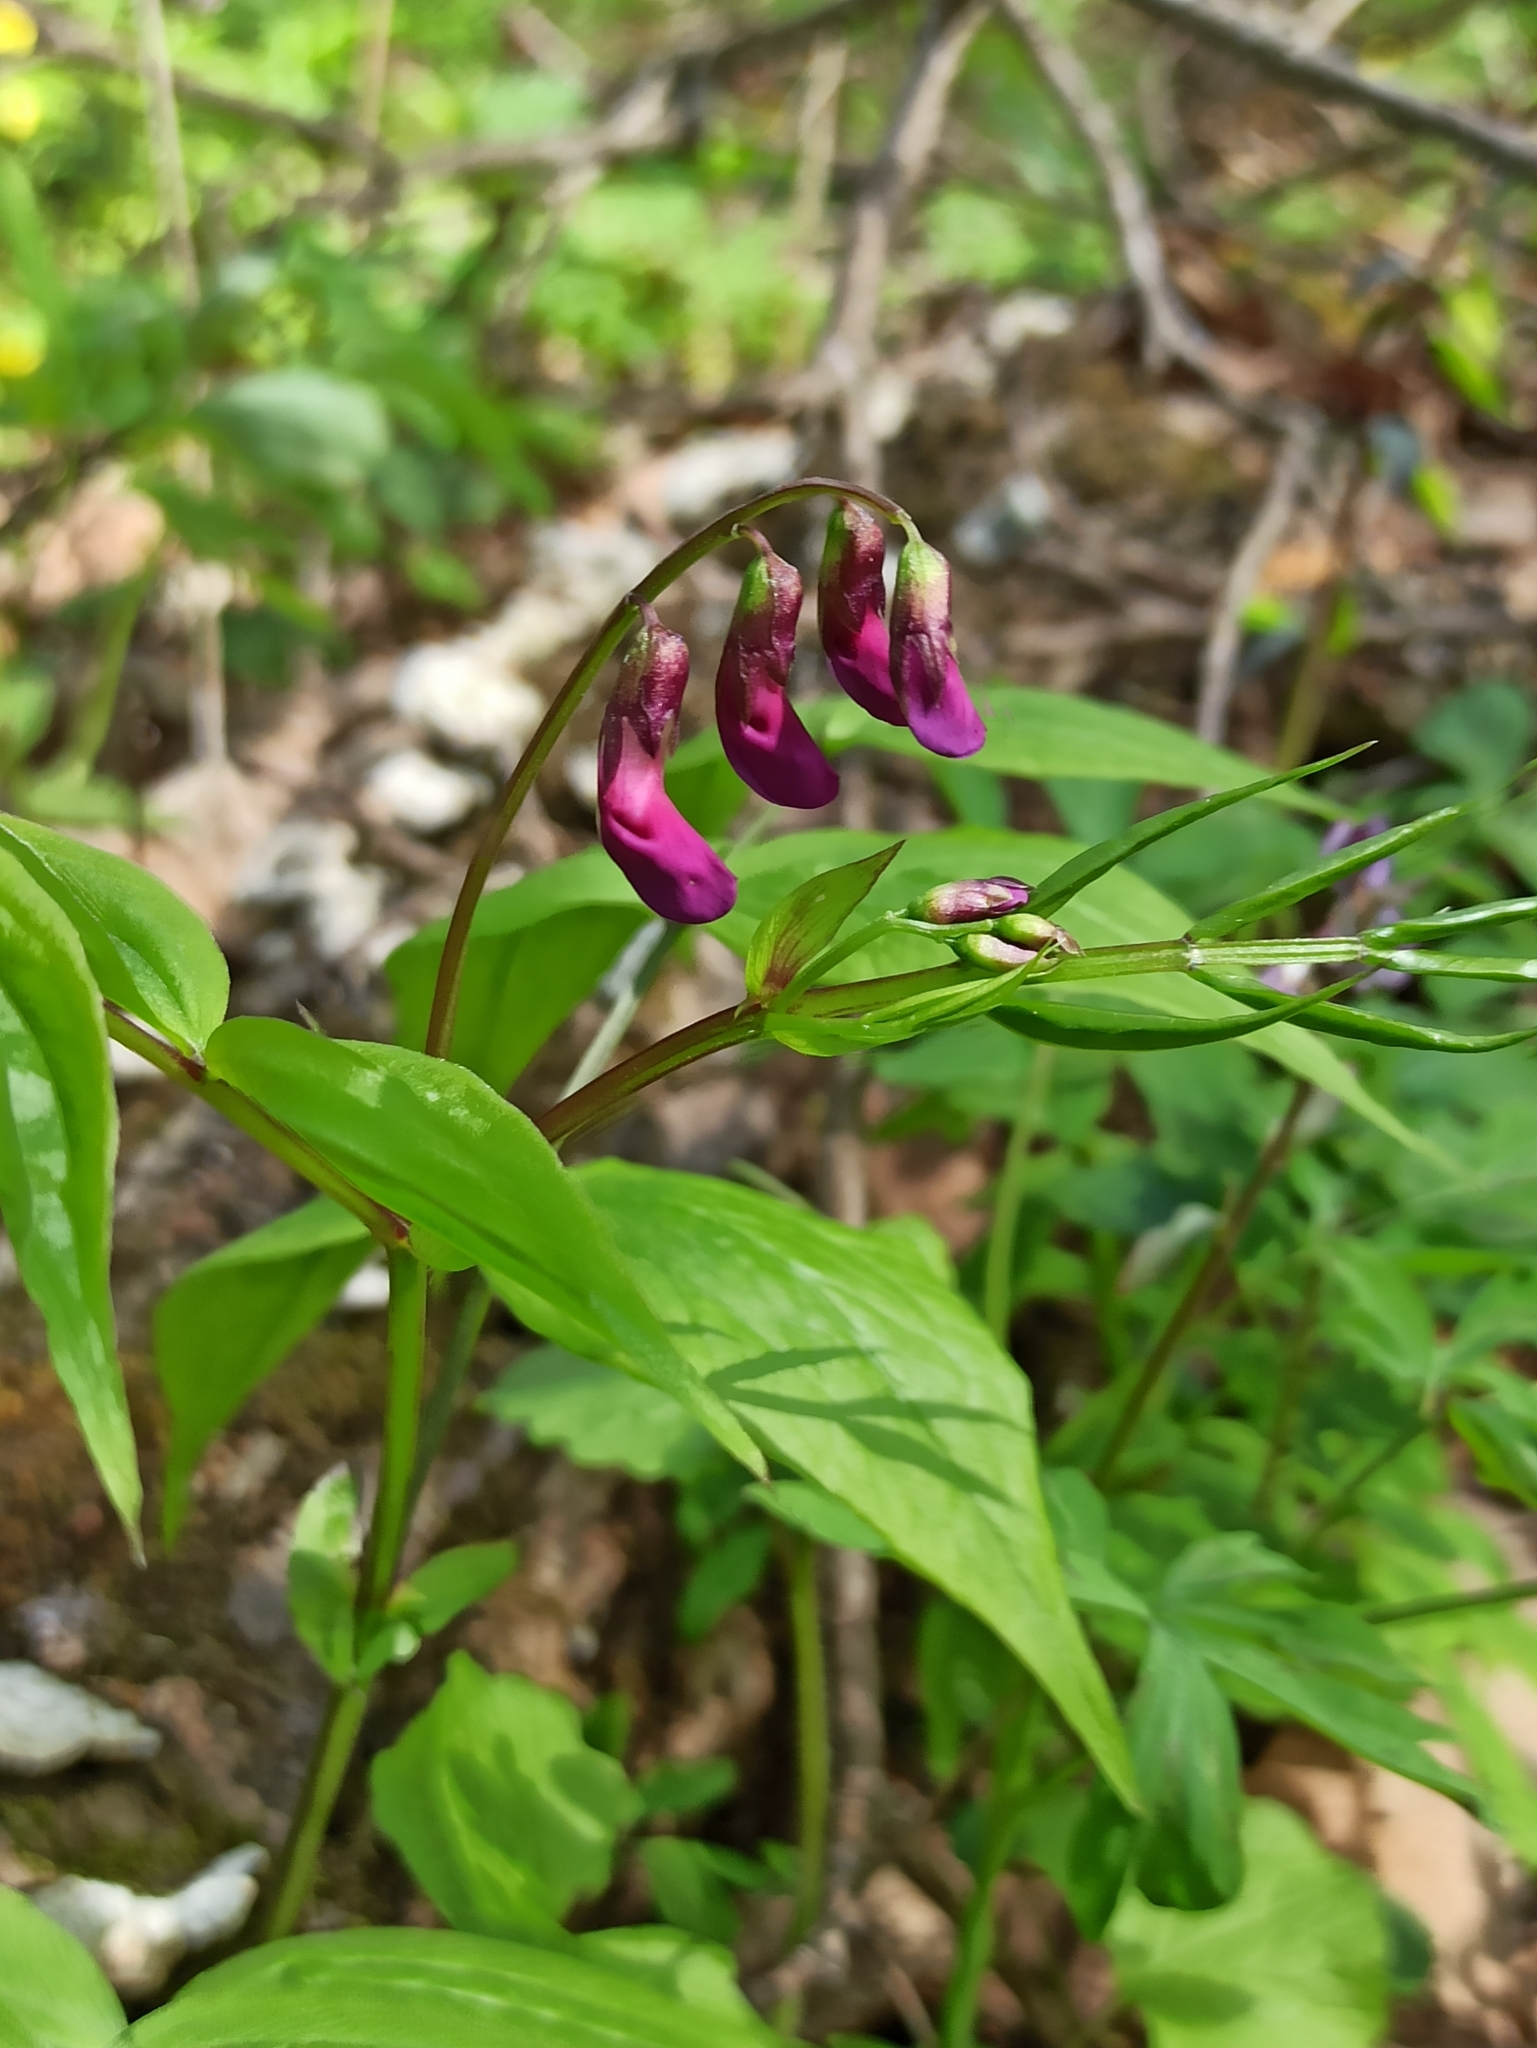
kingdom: Plantae
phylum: Tracheophyta
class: Magnoliopsida
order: Fabales
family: Fabaceae
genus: Lathyrus
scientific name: Lathyrus vernus
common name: Spring pea
